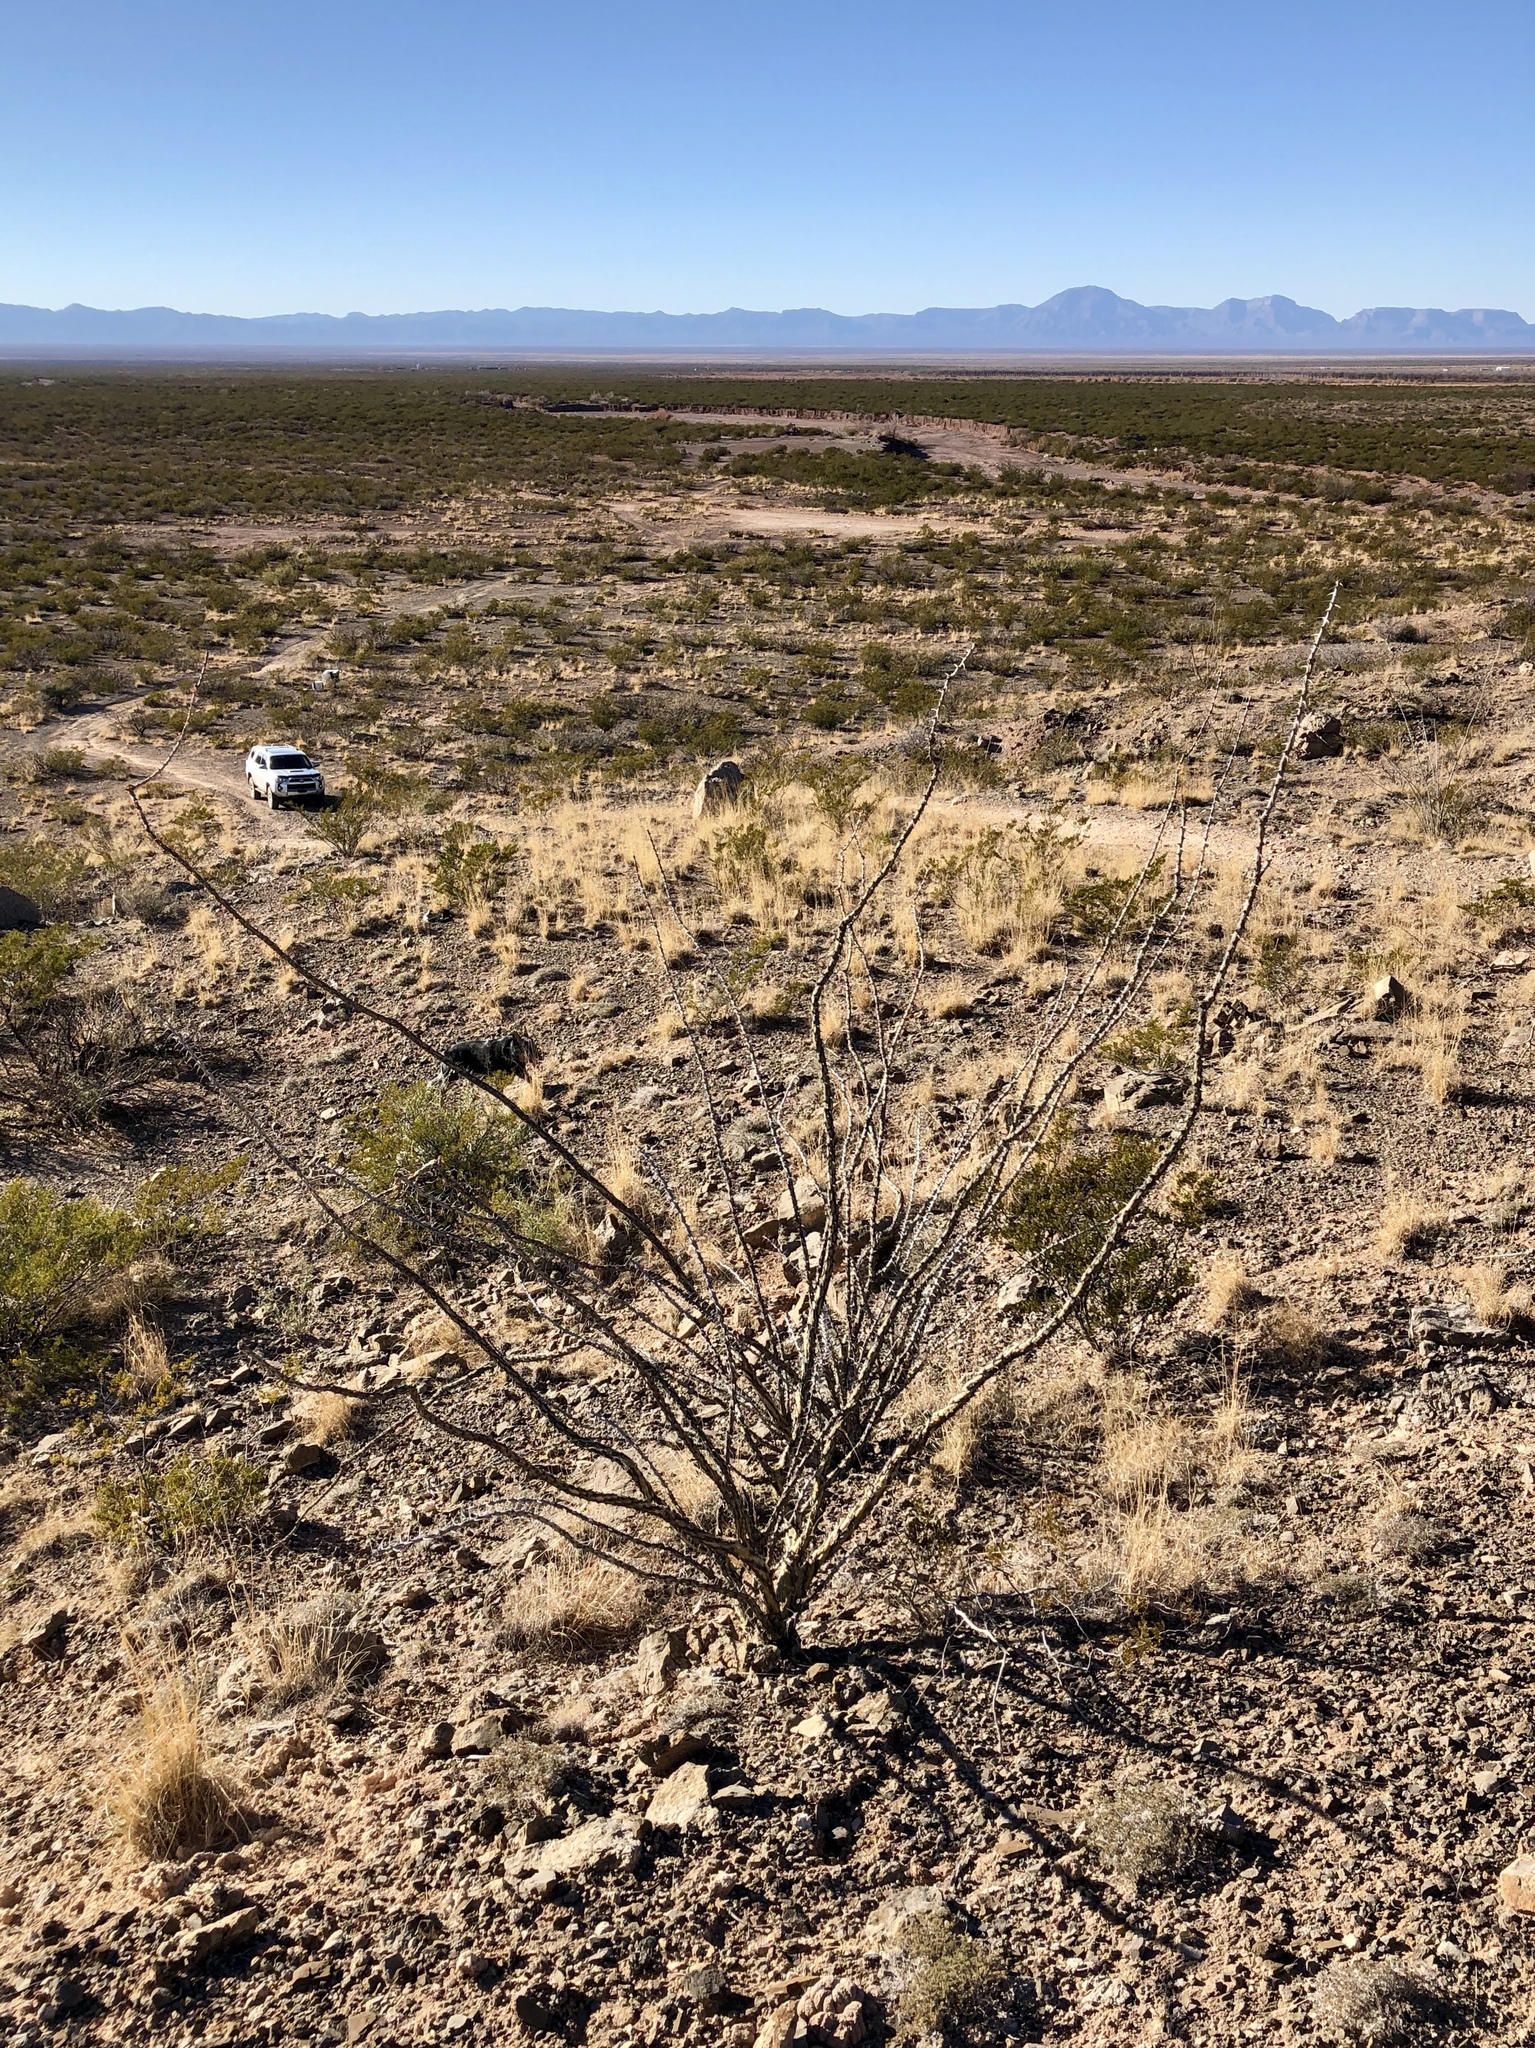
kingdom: Plantae
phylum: Tracheophyta
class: Magnoliopsida
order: Ericales
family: Fouquieriaceae
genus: Fouquieria
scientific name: Fouquieria splendens
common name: Vine-cactus
